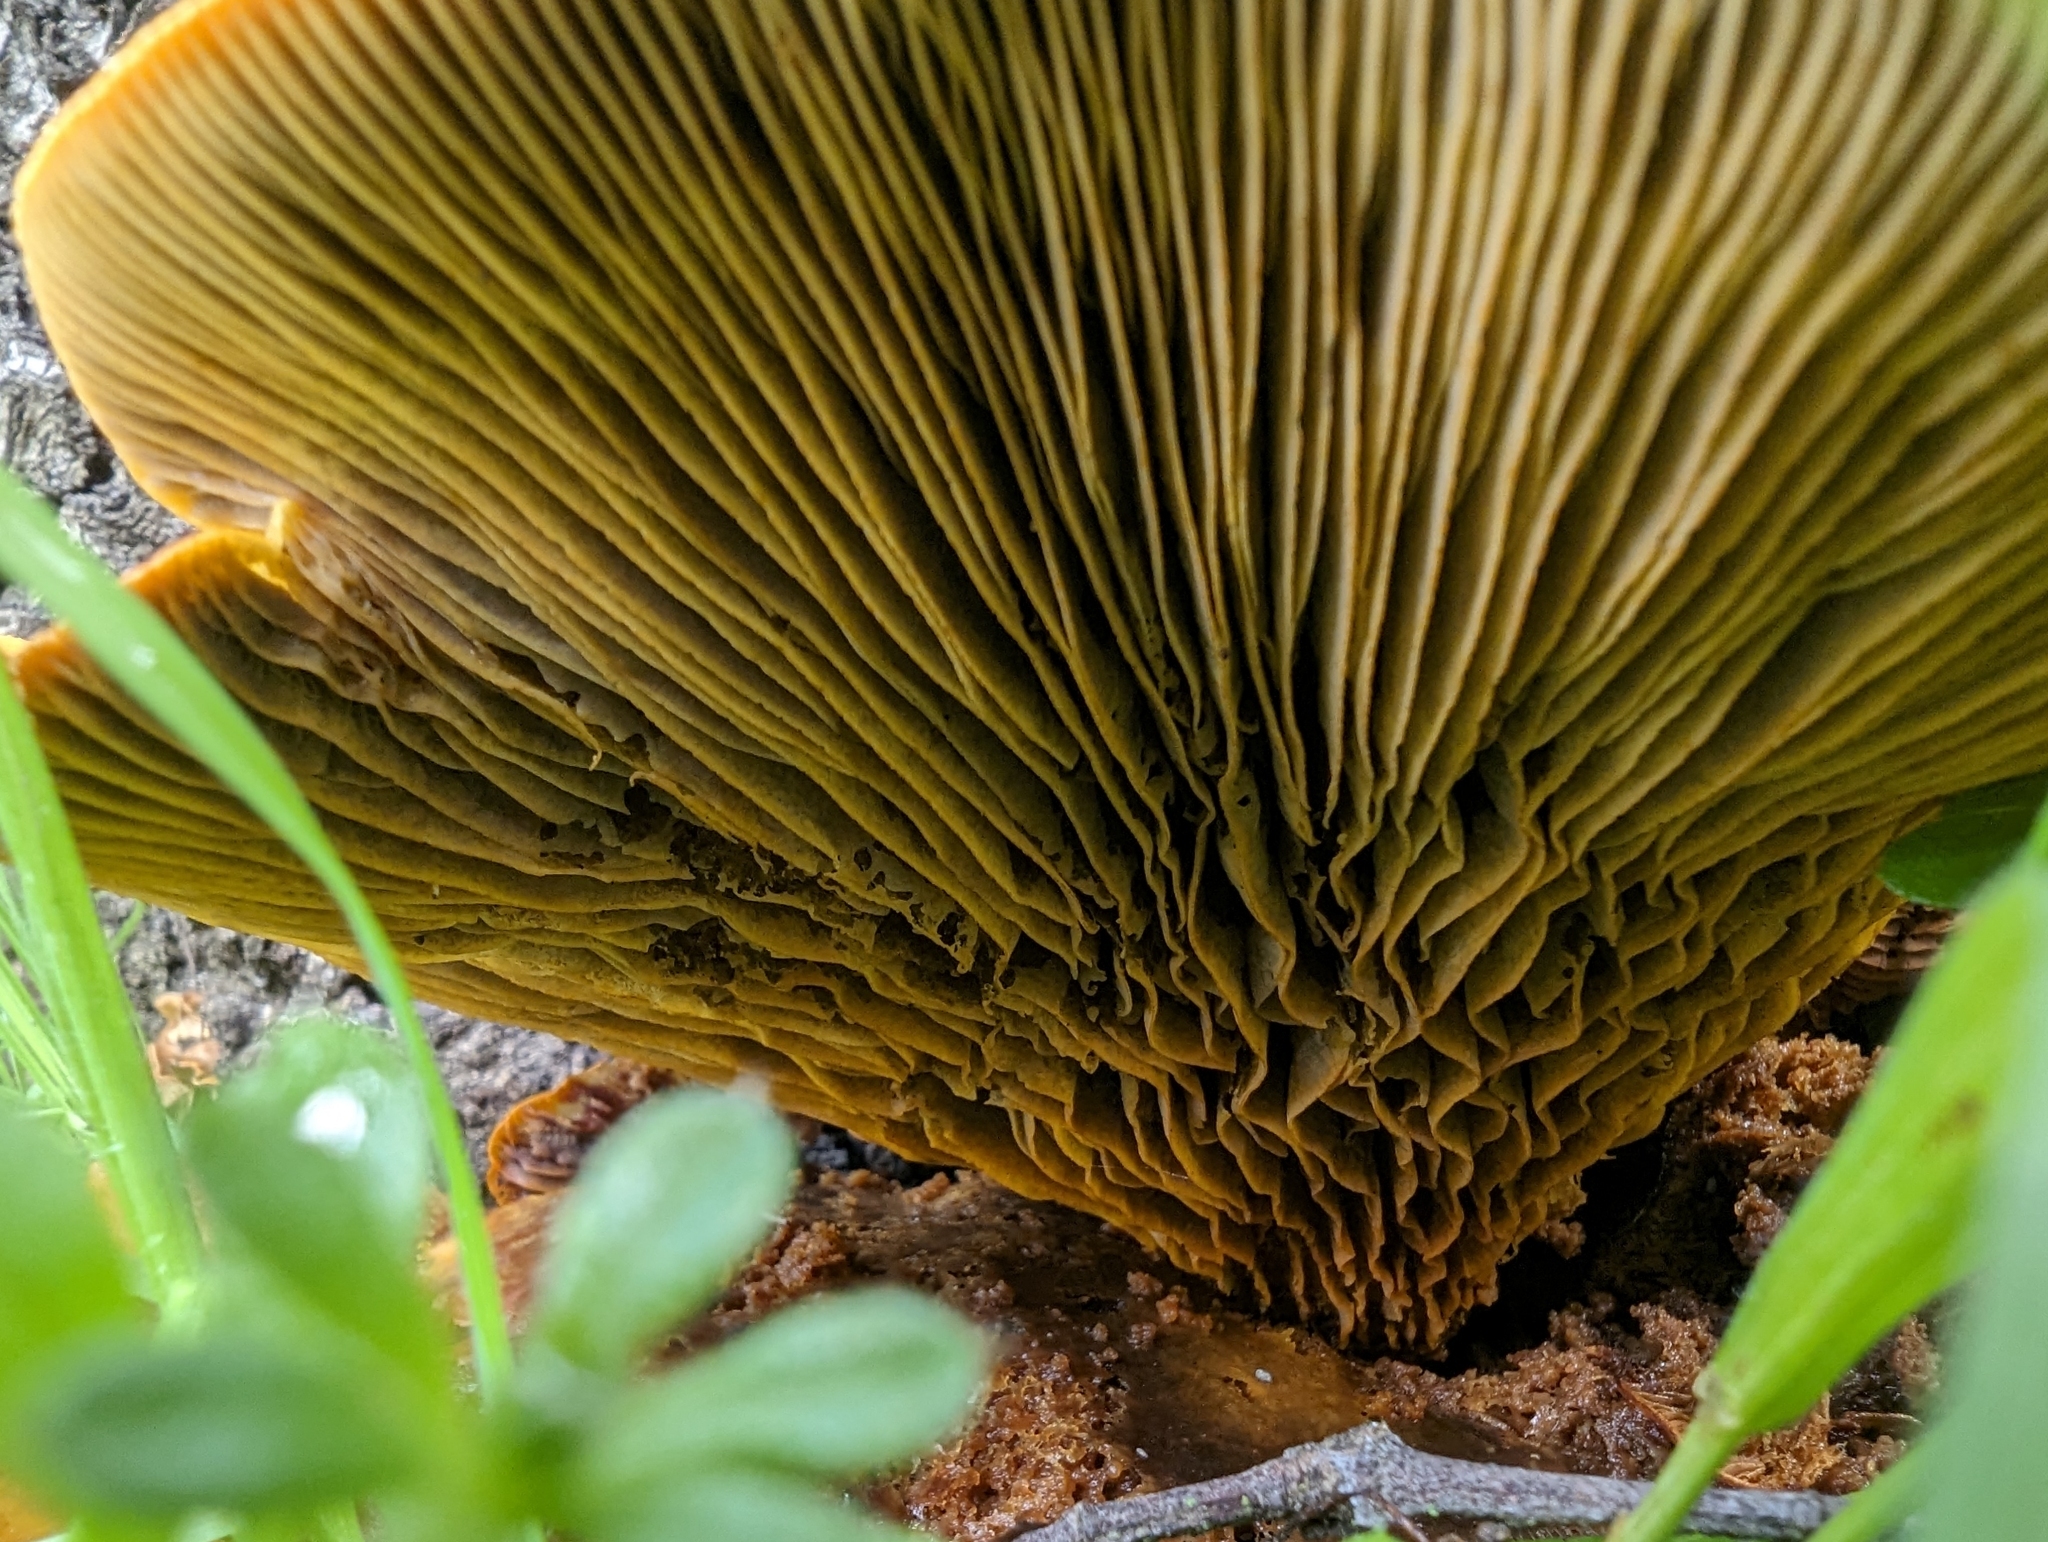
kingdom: Fungi
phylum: Basidiomycota
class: Agaricomycetes
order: Agaricales
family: Omphalotaceae
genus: Omphalotus
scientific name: Omphalotus olivascens
